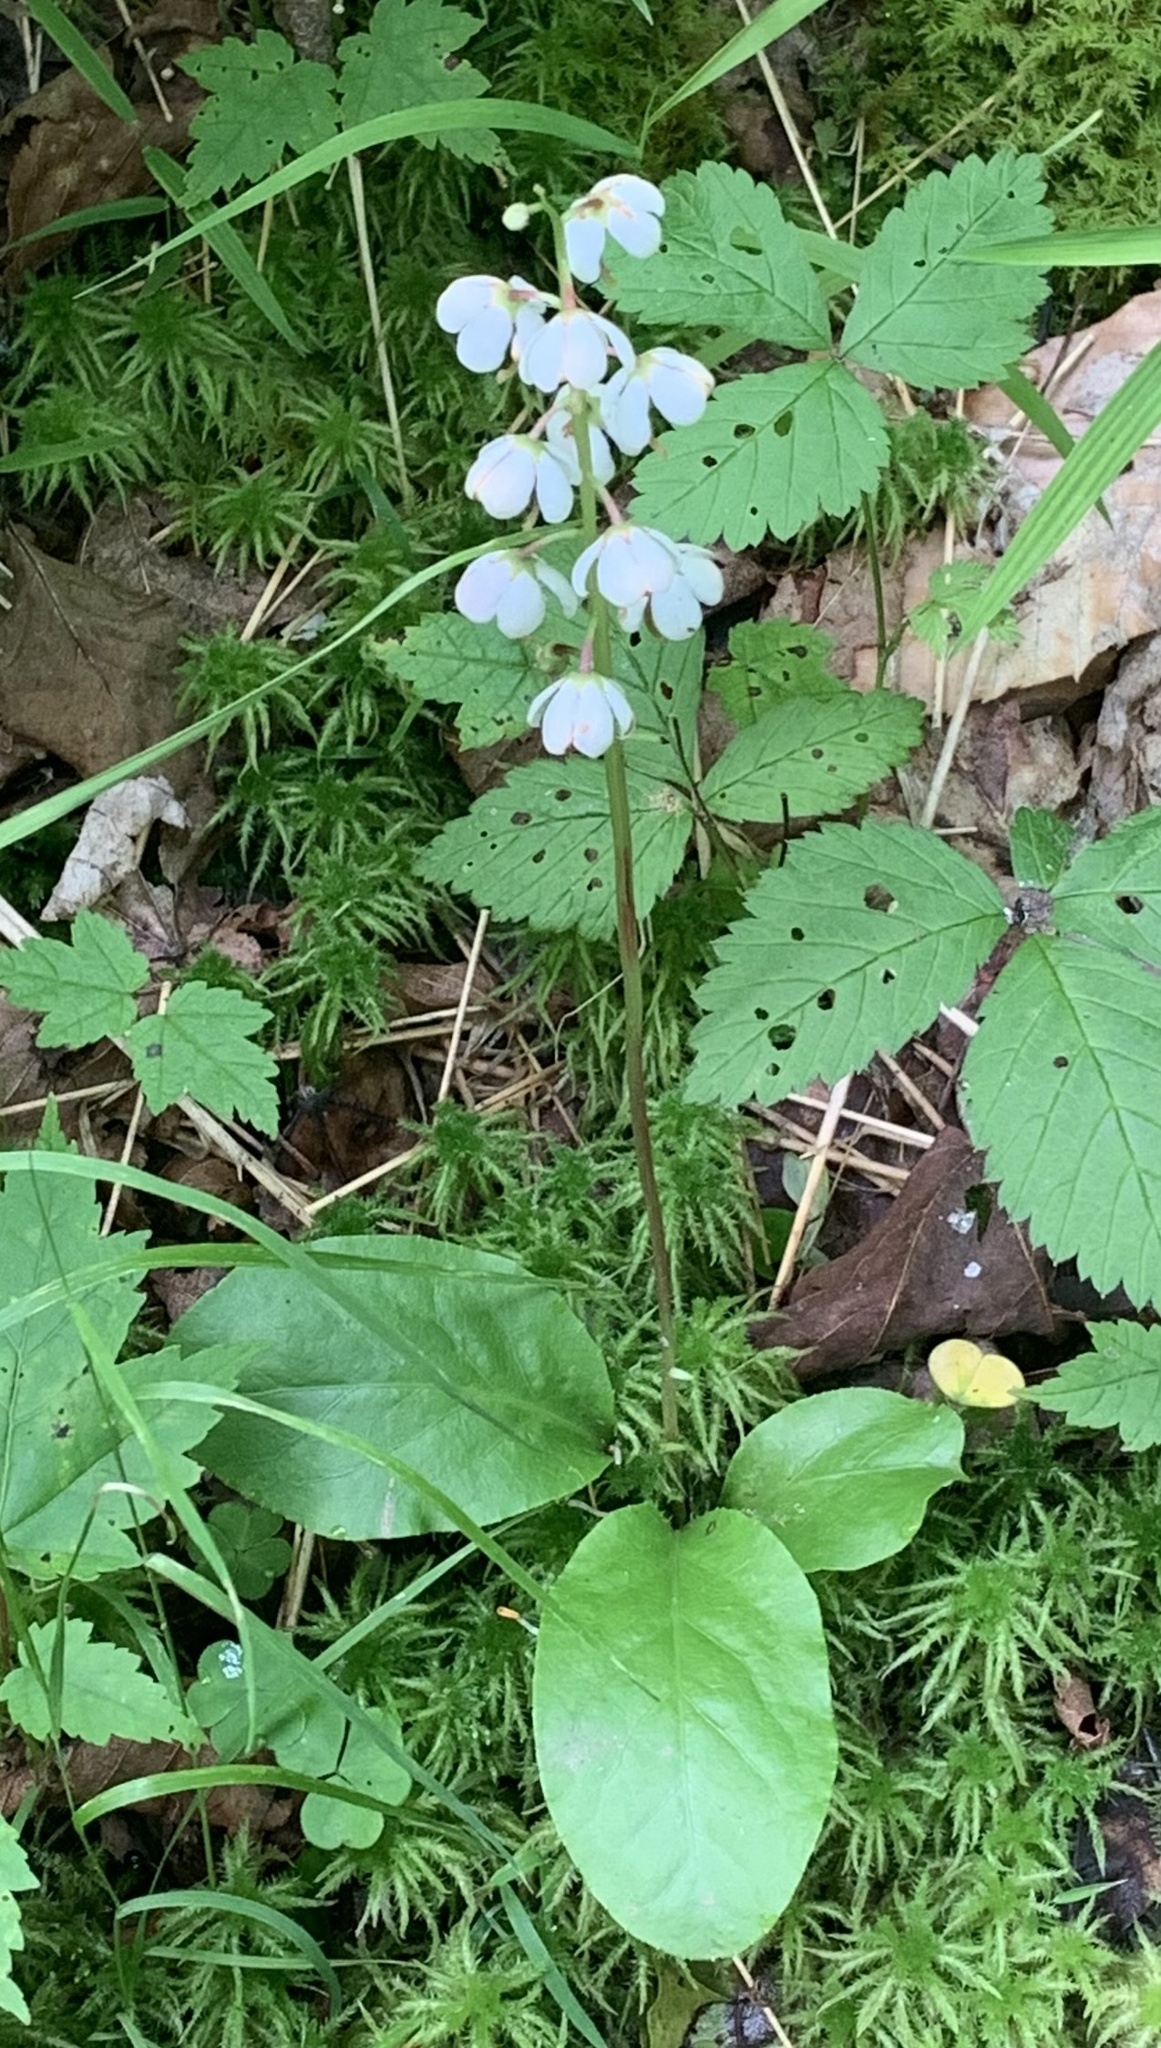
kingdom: Plantae
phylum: Tracheophyta
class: Magnoliopsida
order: Ericales
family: Ericaceae
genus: Pyrola
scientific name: Pyrola elliptica
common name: Shinleaf
